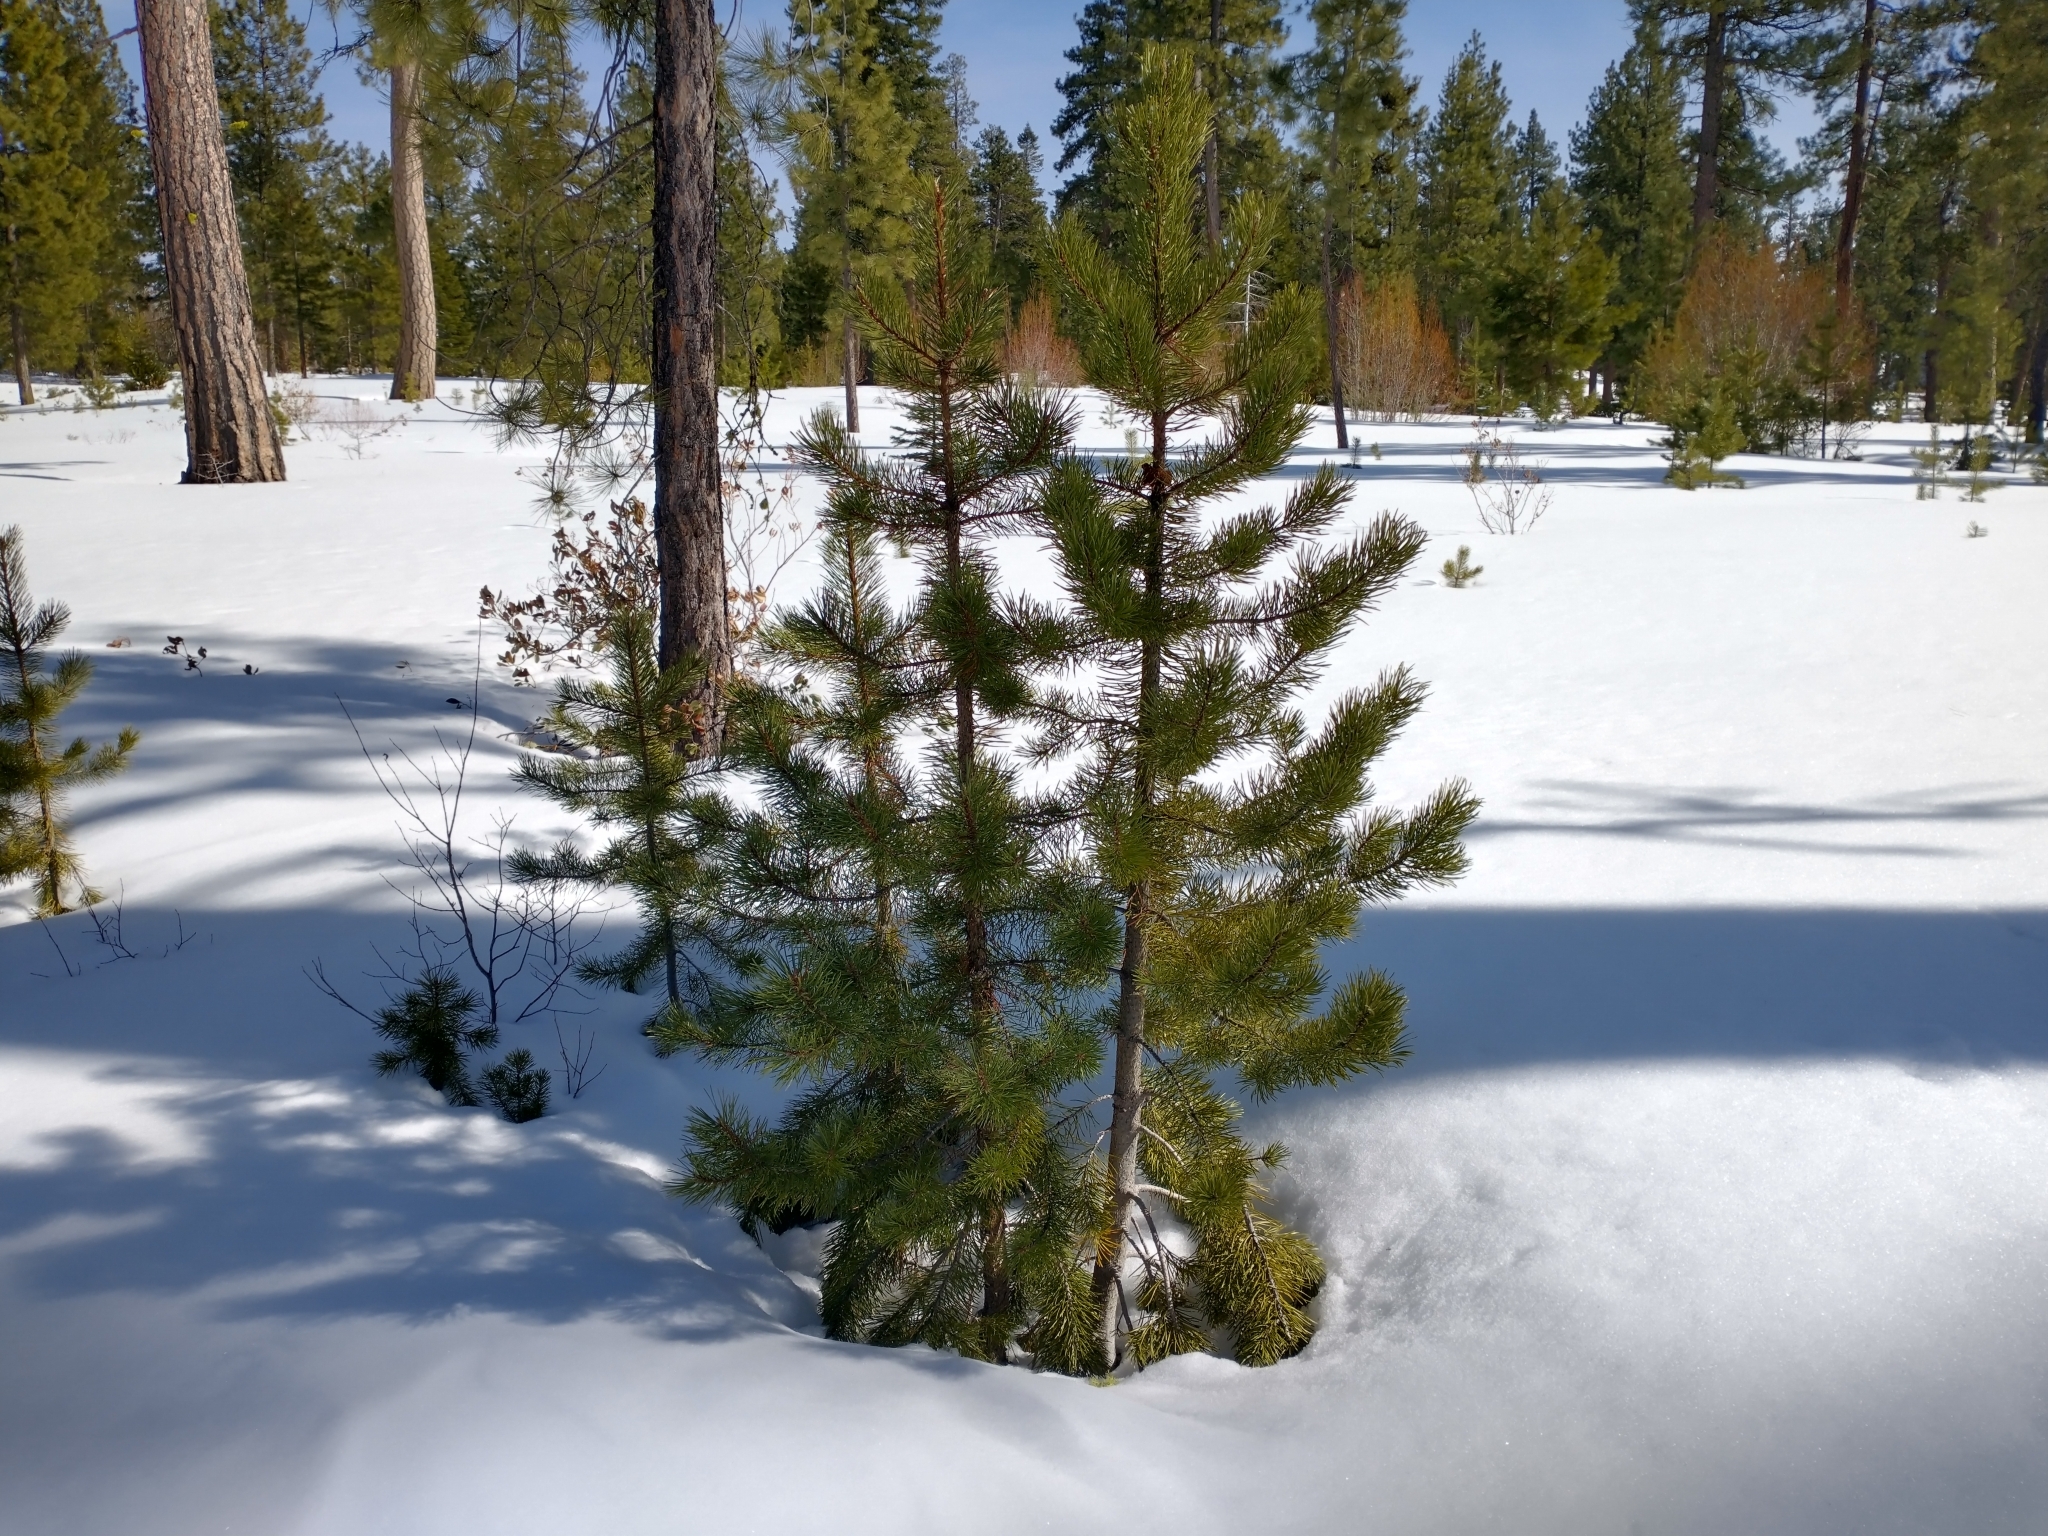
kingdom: Plantae
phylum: Tracheophyta
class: Pinopsida
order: Pinales
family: Pinaceae
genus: Pinus
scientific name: Pinus contorta
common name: Lodgepole pine
